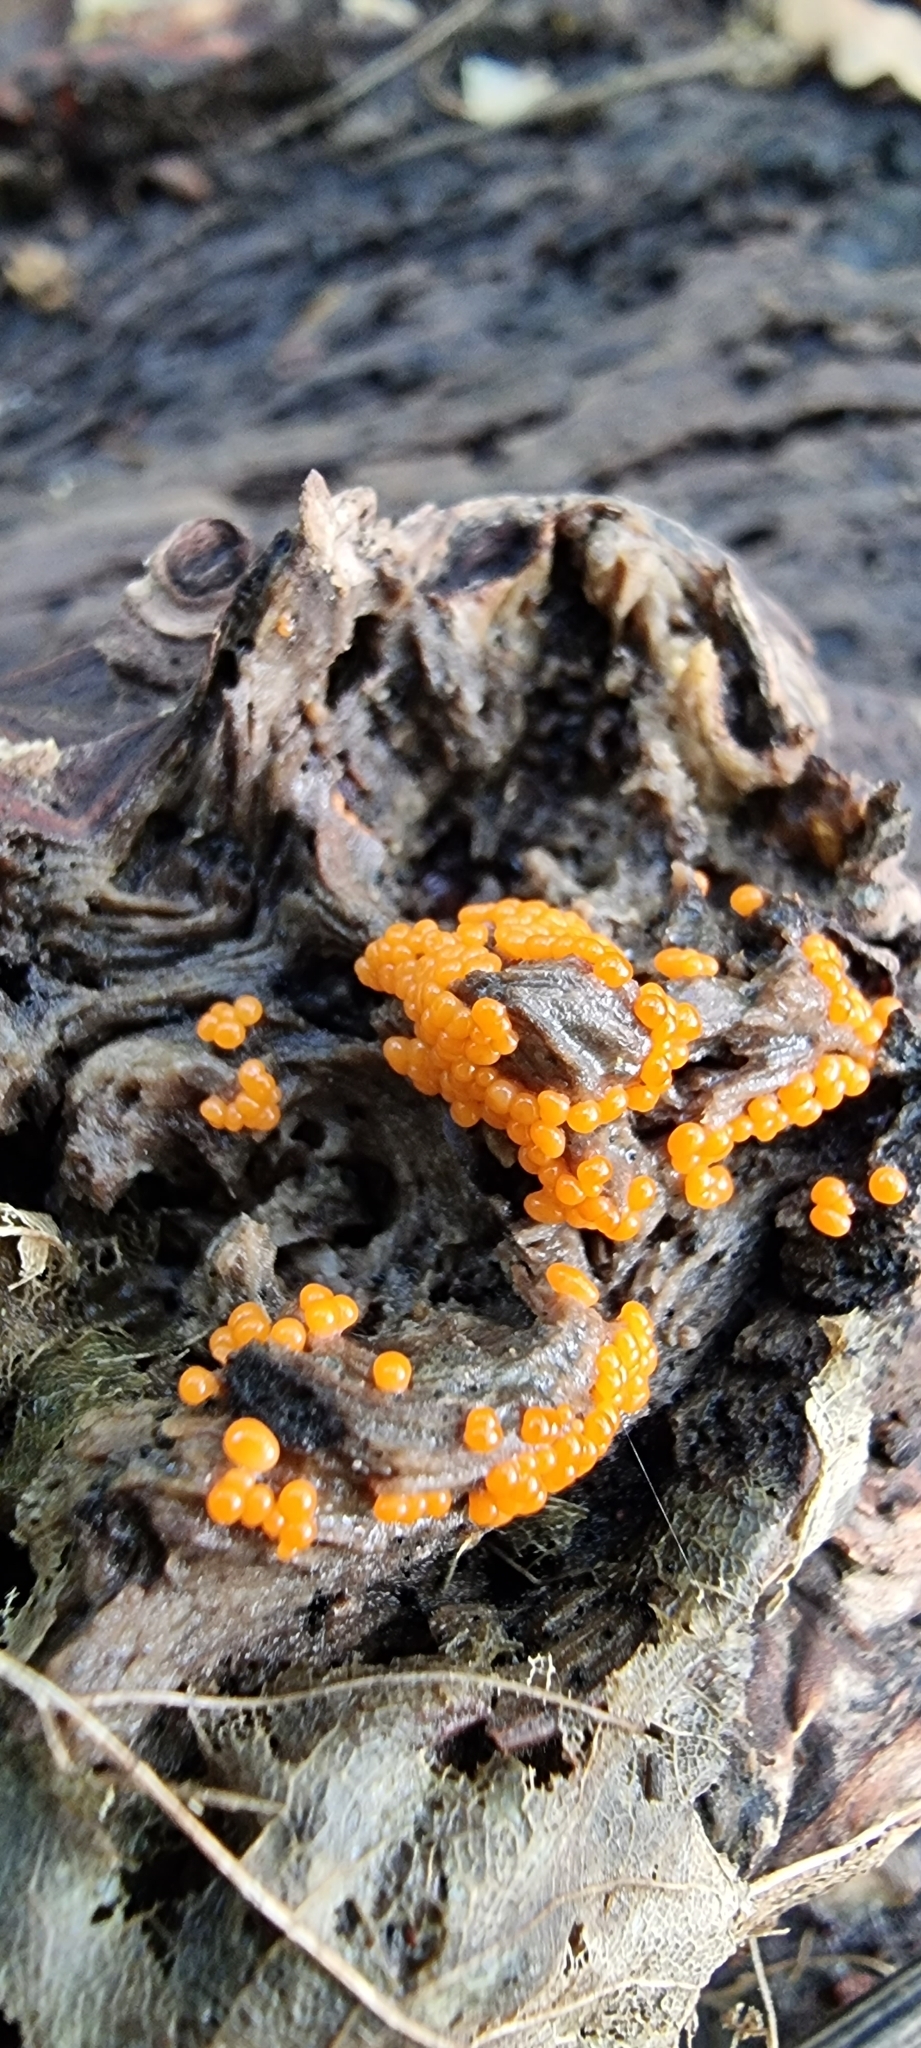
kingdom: Protozoa
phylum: Mycetozoa
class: Myxomycetes
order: Trichiales
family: Arcyriaceae
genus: Hemitrichia
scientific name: Hemitrichia decipiens
